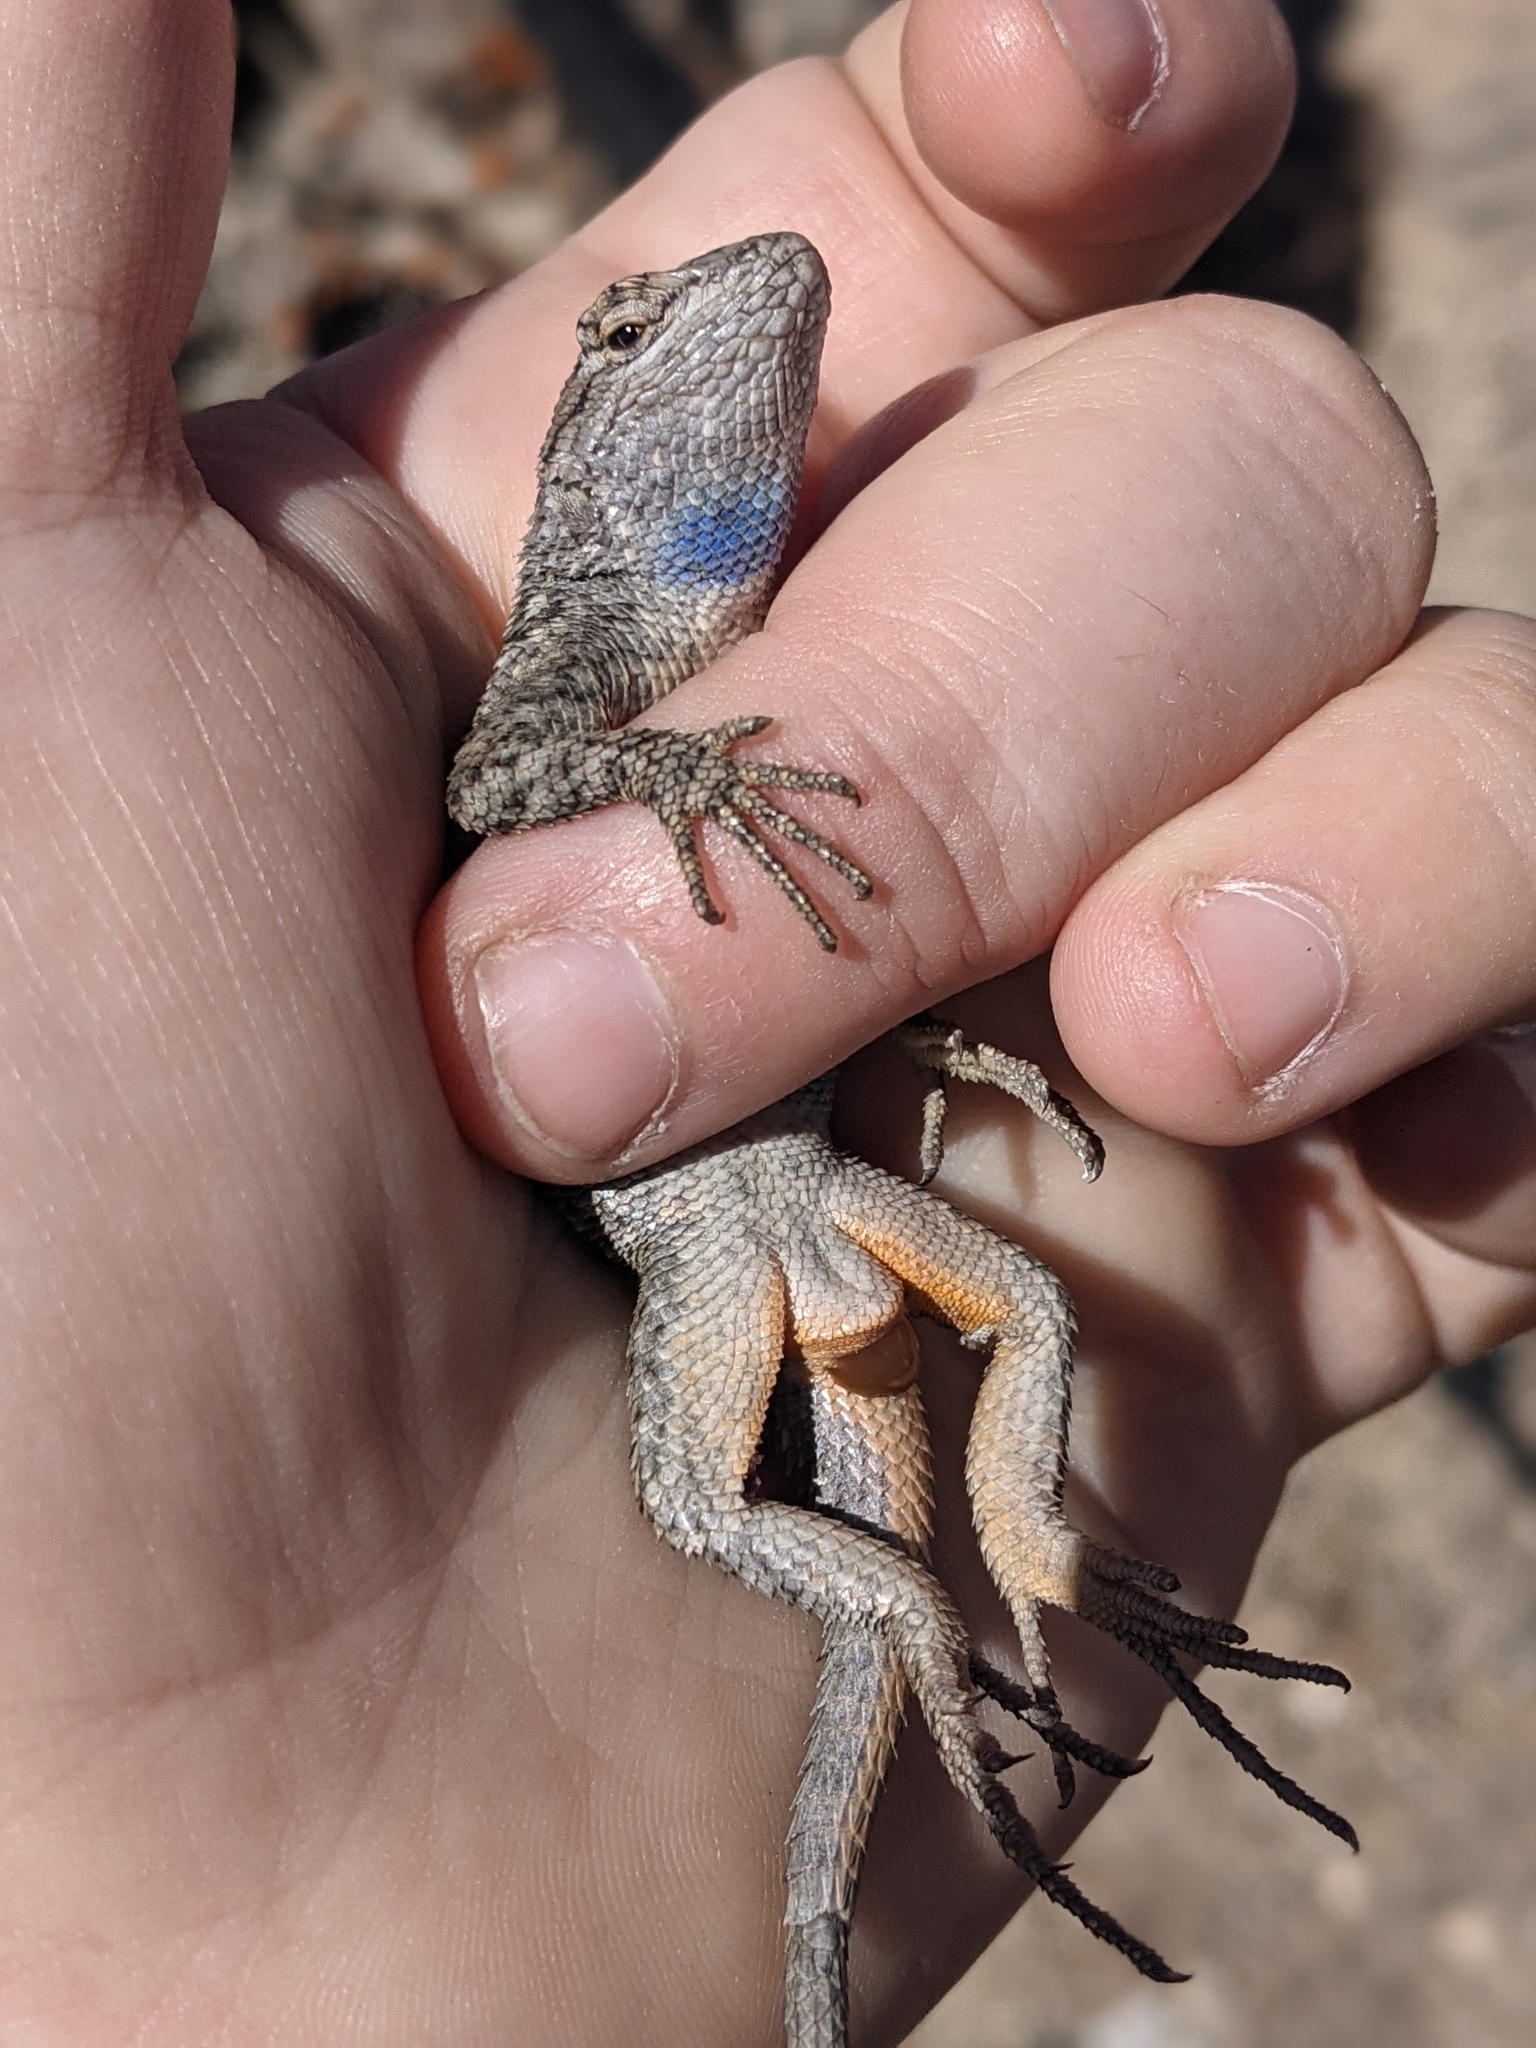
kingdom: Animalia
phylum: Chordata
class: Squamata
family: Phrynosomatidae
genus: Sceloporus
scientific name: Sceloporus occidentalis
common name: Western fence lizard
